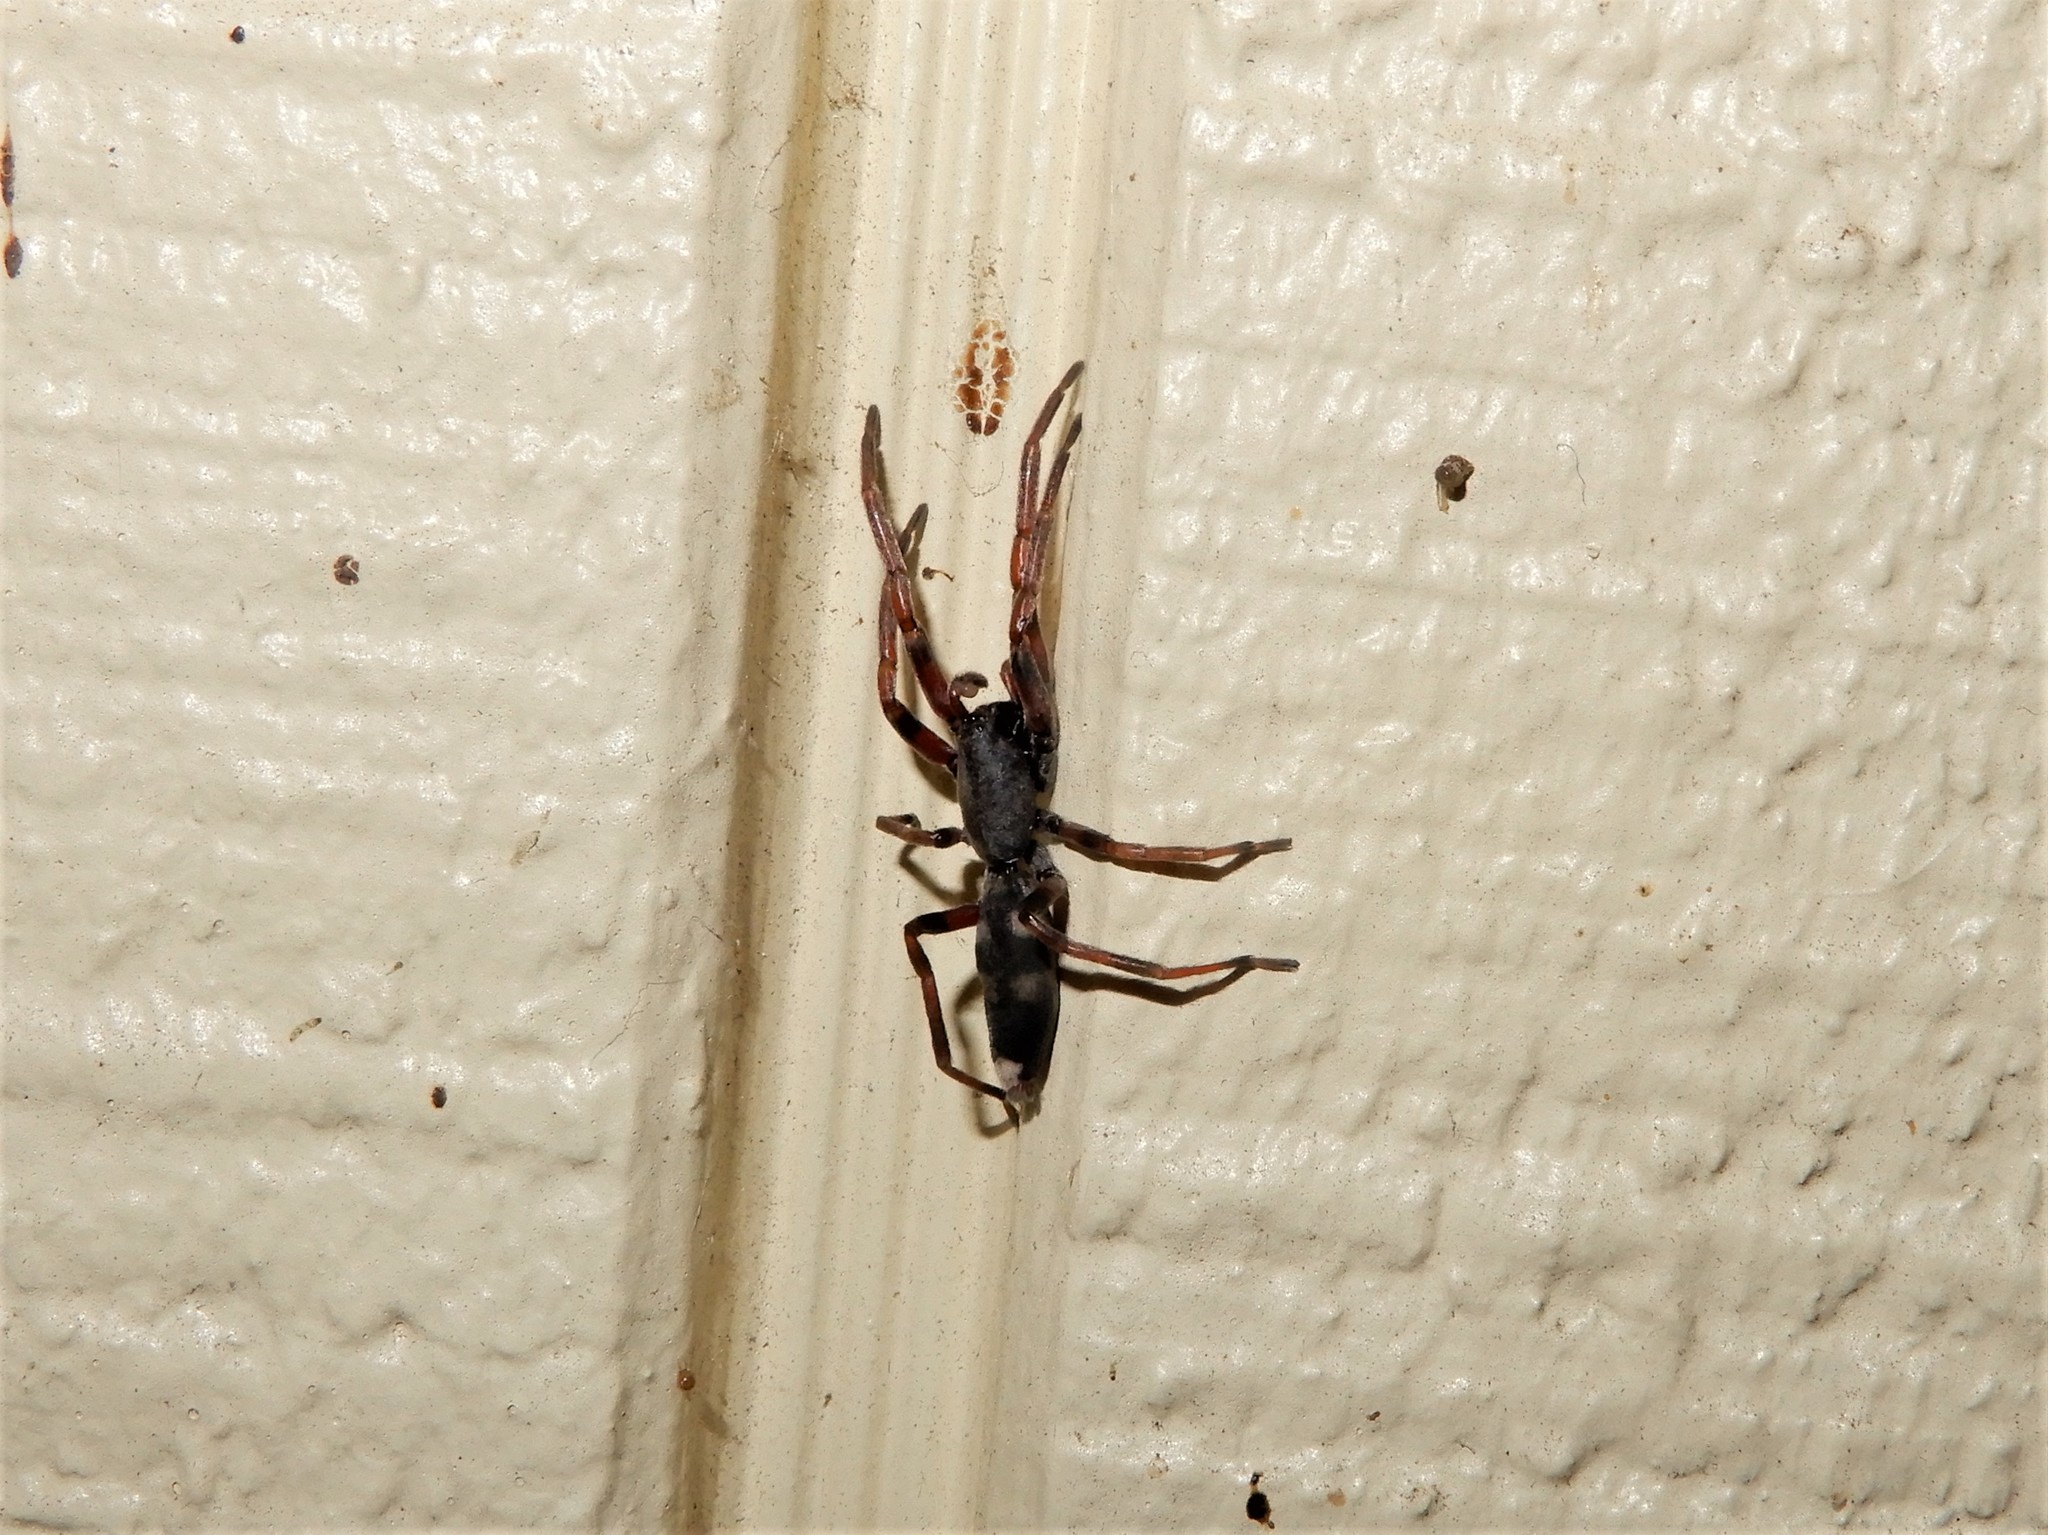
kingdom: Animalia
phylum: Arthropoda
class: Arachnida
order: Araneae
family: Lamponidae
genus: Lampona
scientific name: Lampona murina
